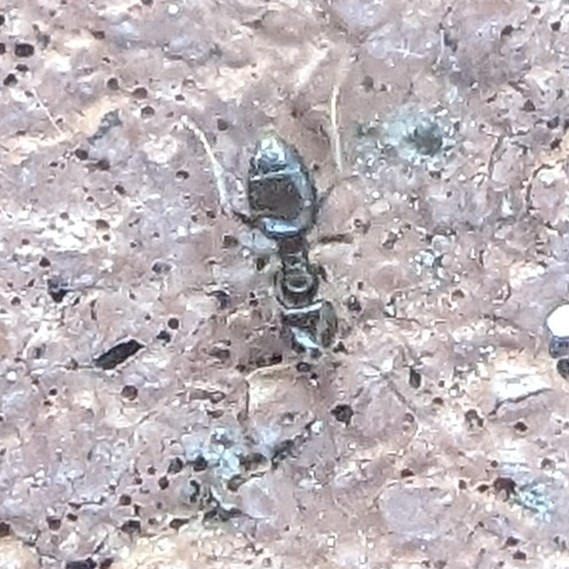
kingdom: Animalia
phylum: Arthropoda
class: Insecta
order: Hymenoptera
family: Formicidae
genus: Brachymyrmex
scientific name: Brachymyrmex patagonicus
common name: Dark rover ant
